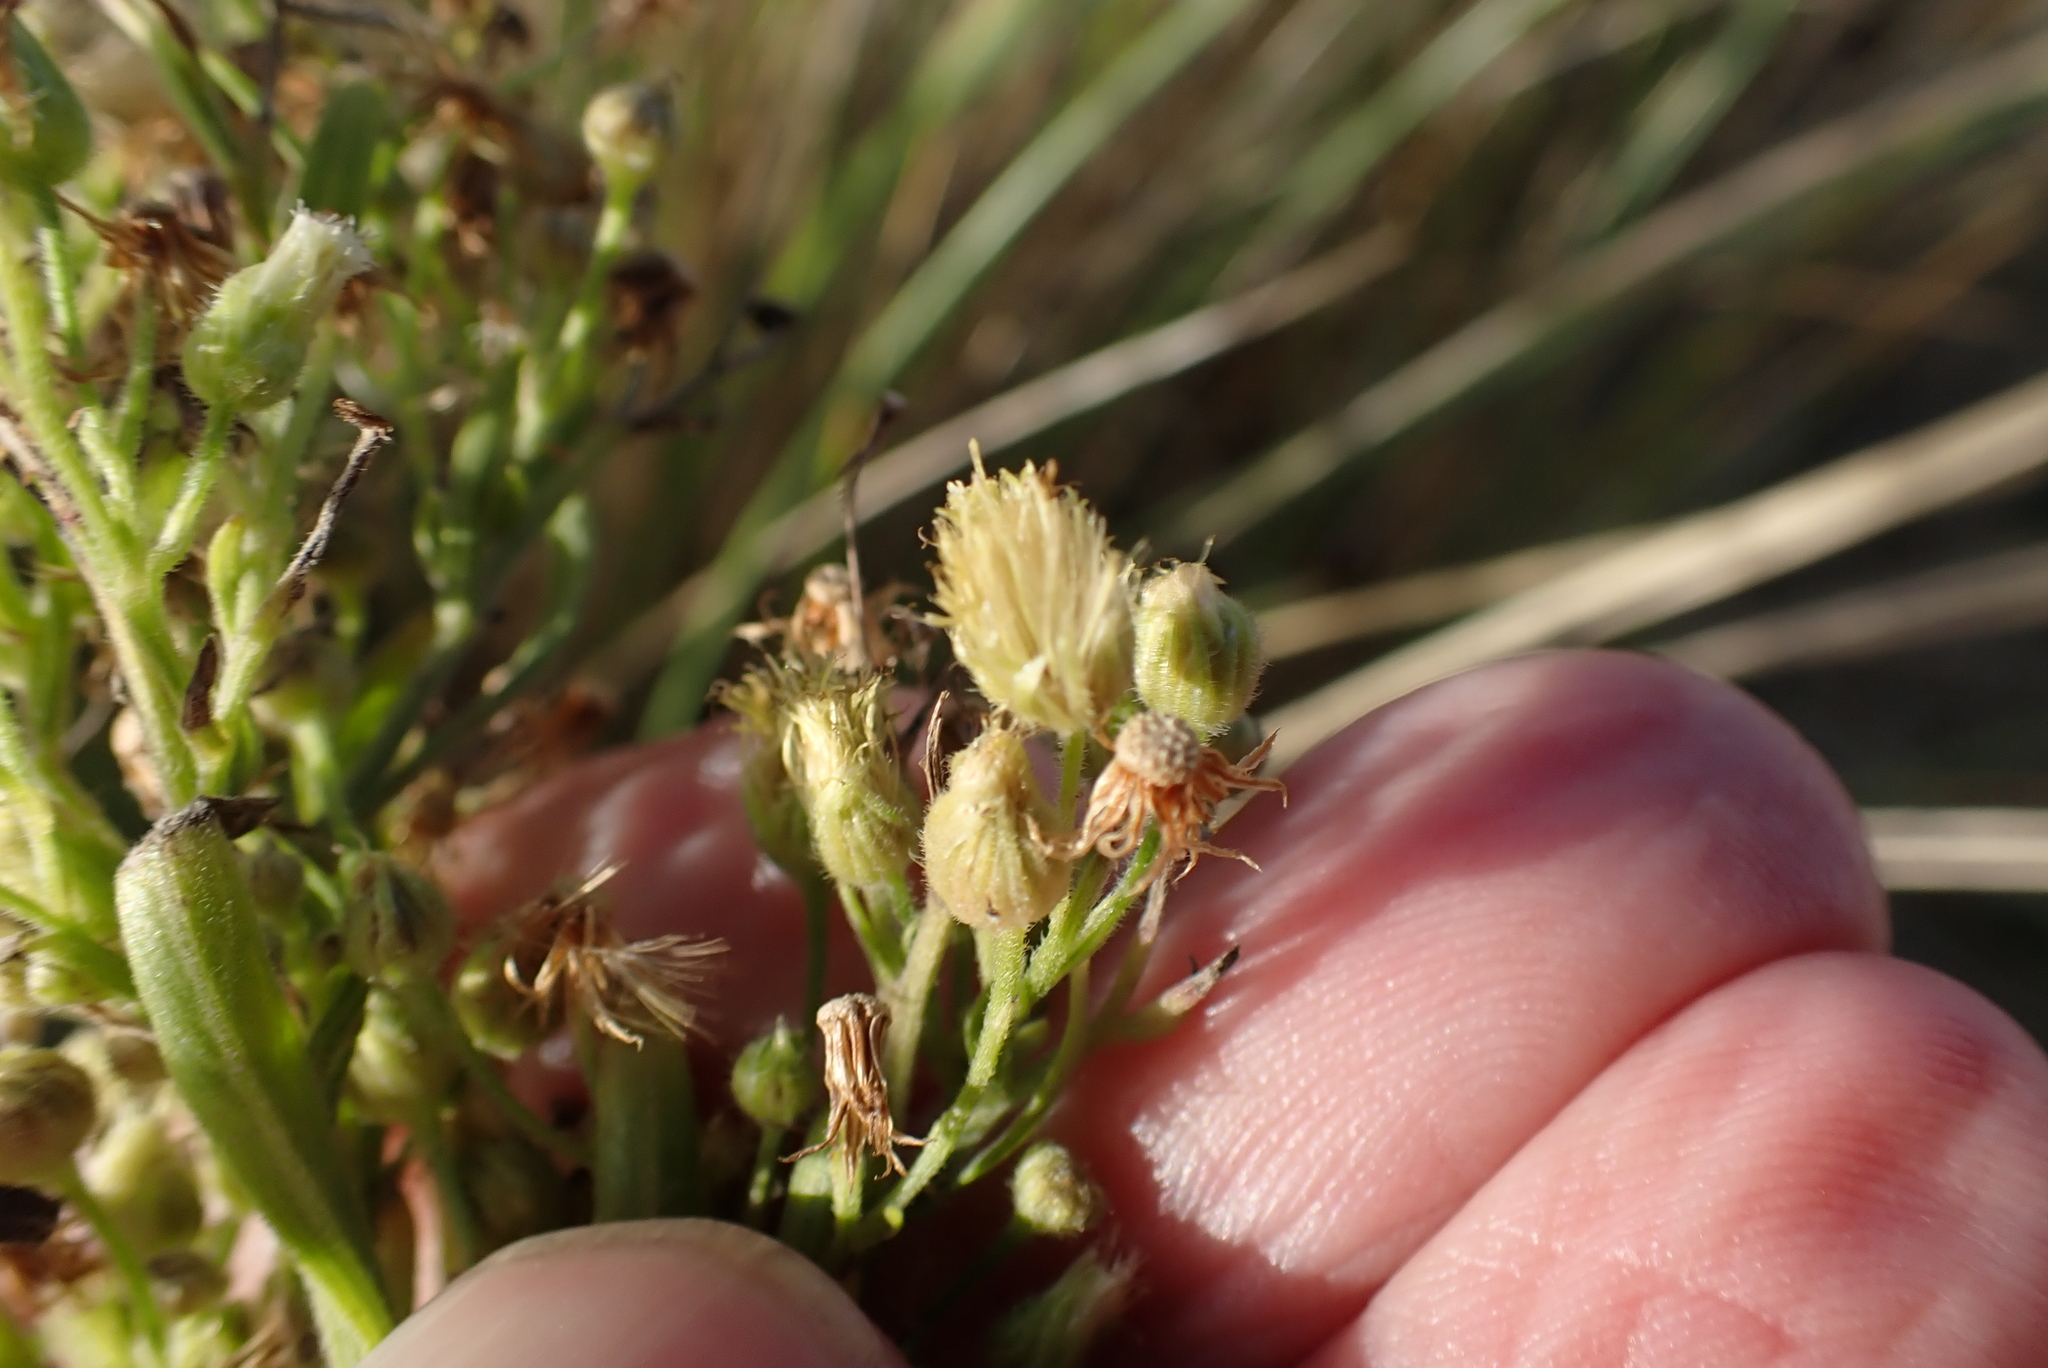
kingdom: Plantae
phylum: Tracheophyta
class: Magnoliopsida
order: Asterales
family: Asteraceae
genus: Erigeron
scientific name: Erigeron sumatrensis
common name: Daisy
